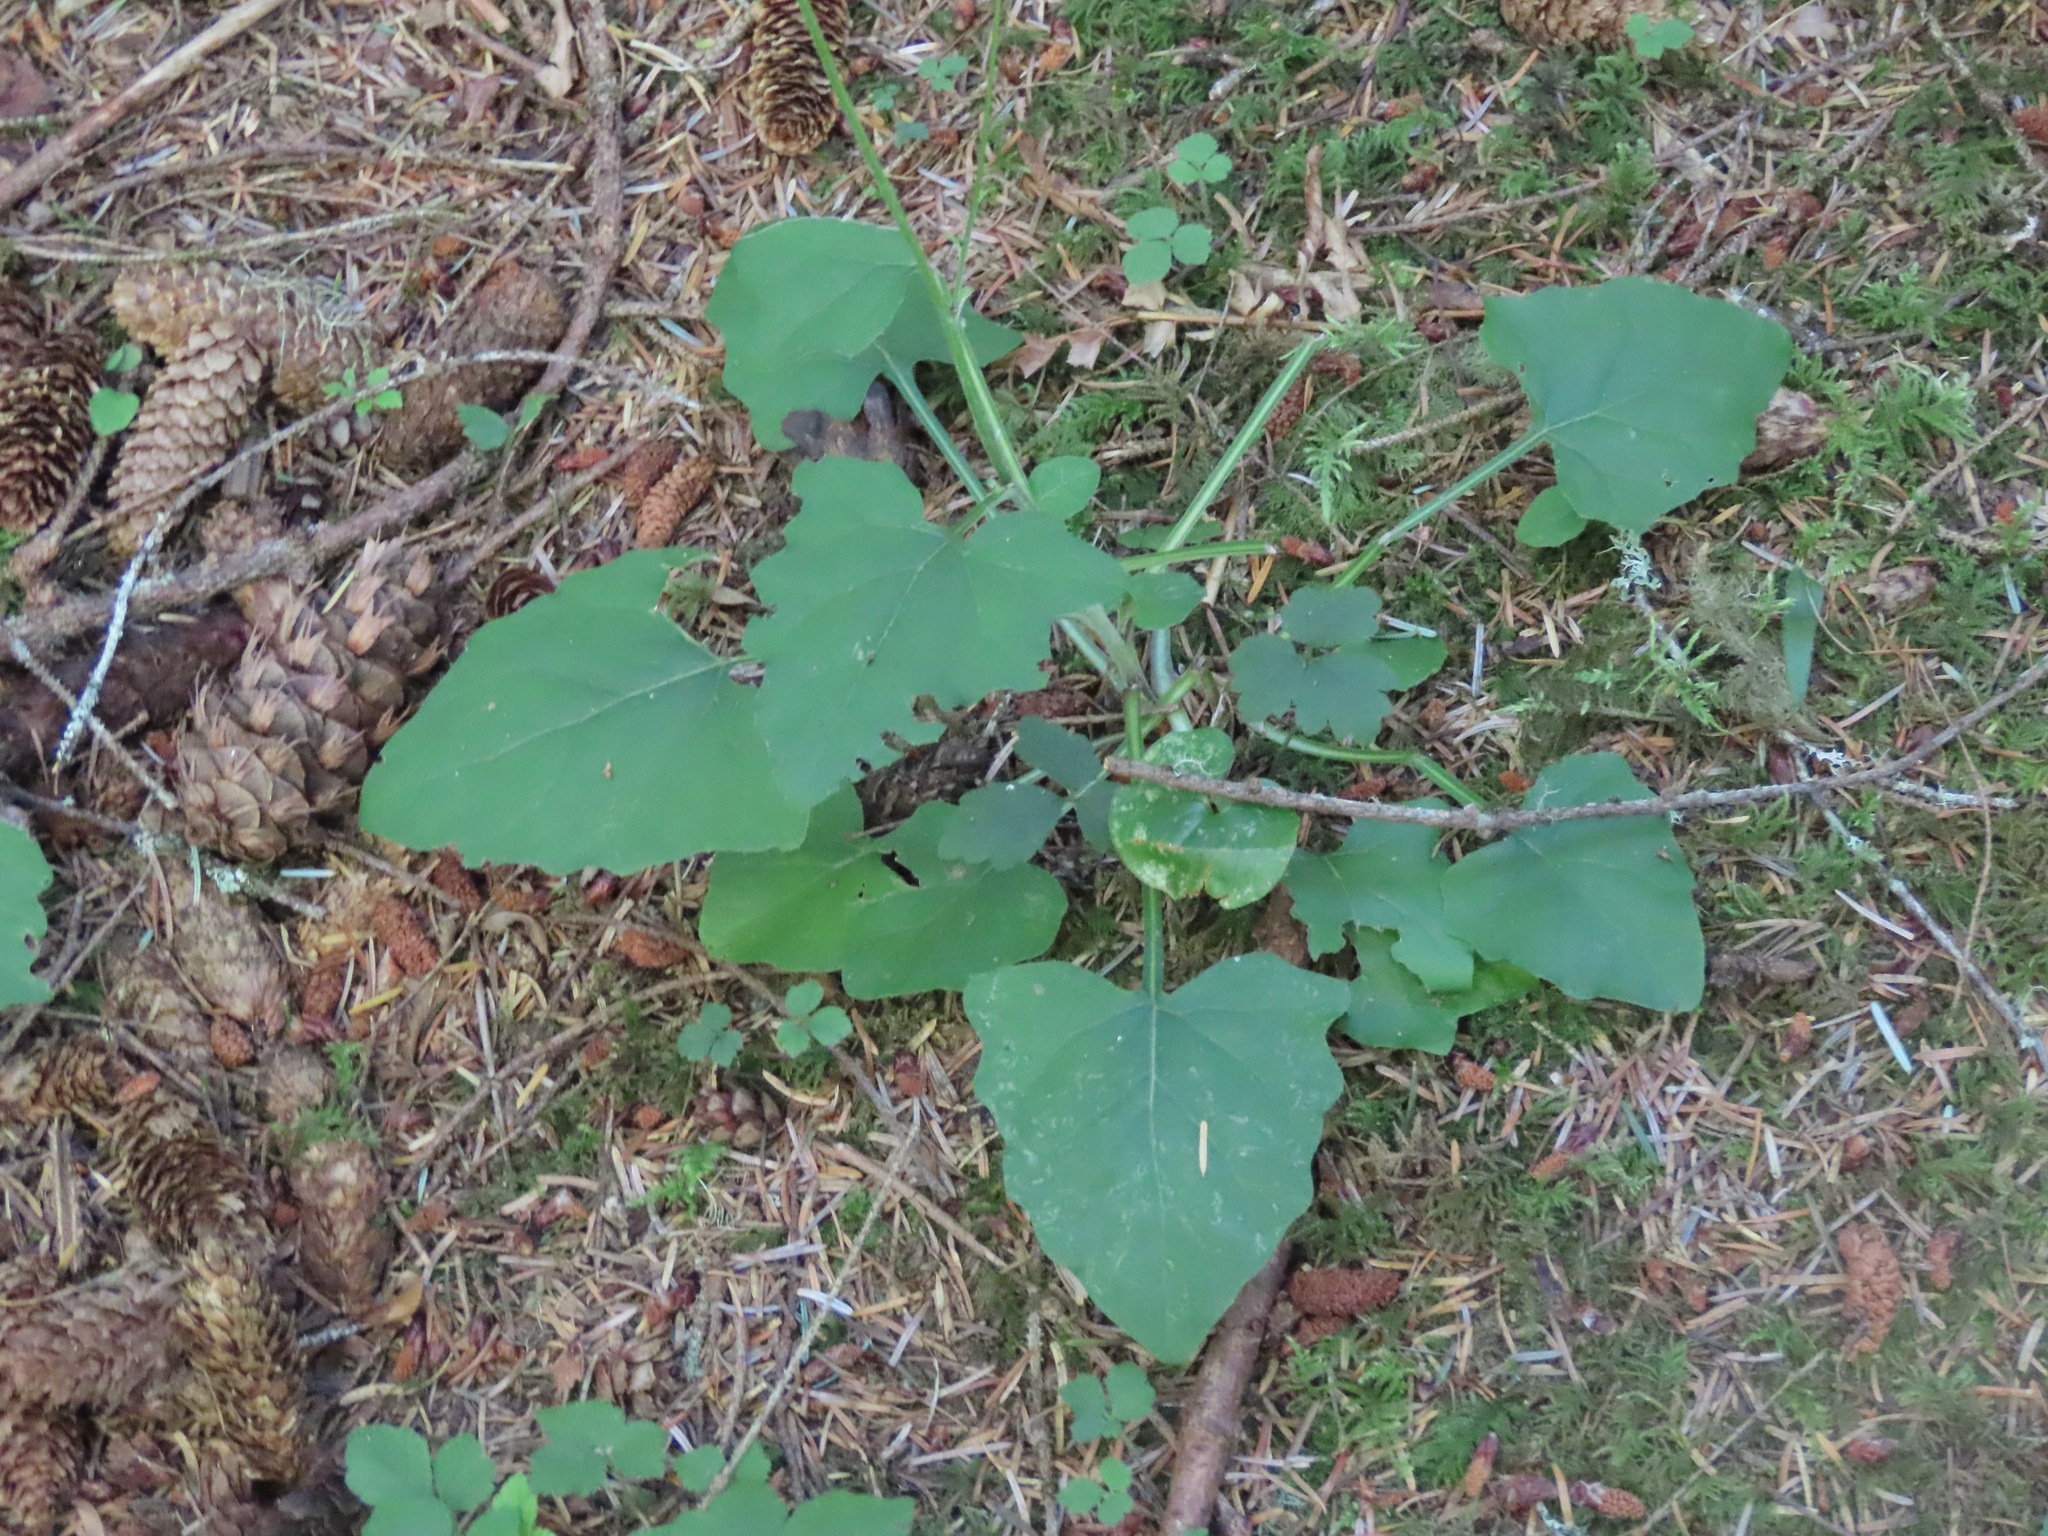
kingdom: Plantae
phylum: Tracheophyta
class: Magnoliopsida
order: Asterales
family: Asteraceae
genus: Adenocaulon
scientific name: Adenocaulon bicolor
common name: Trailplant
